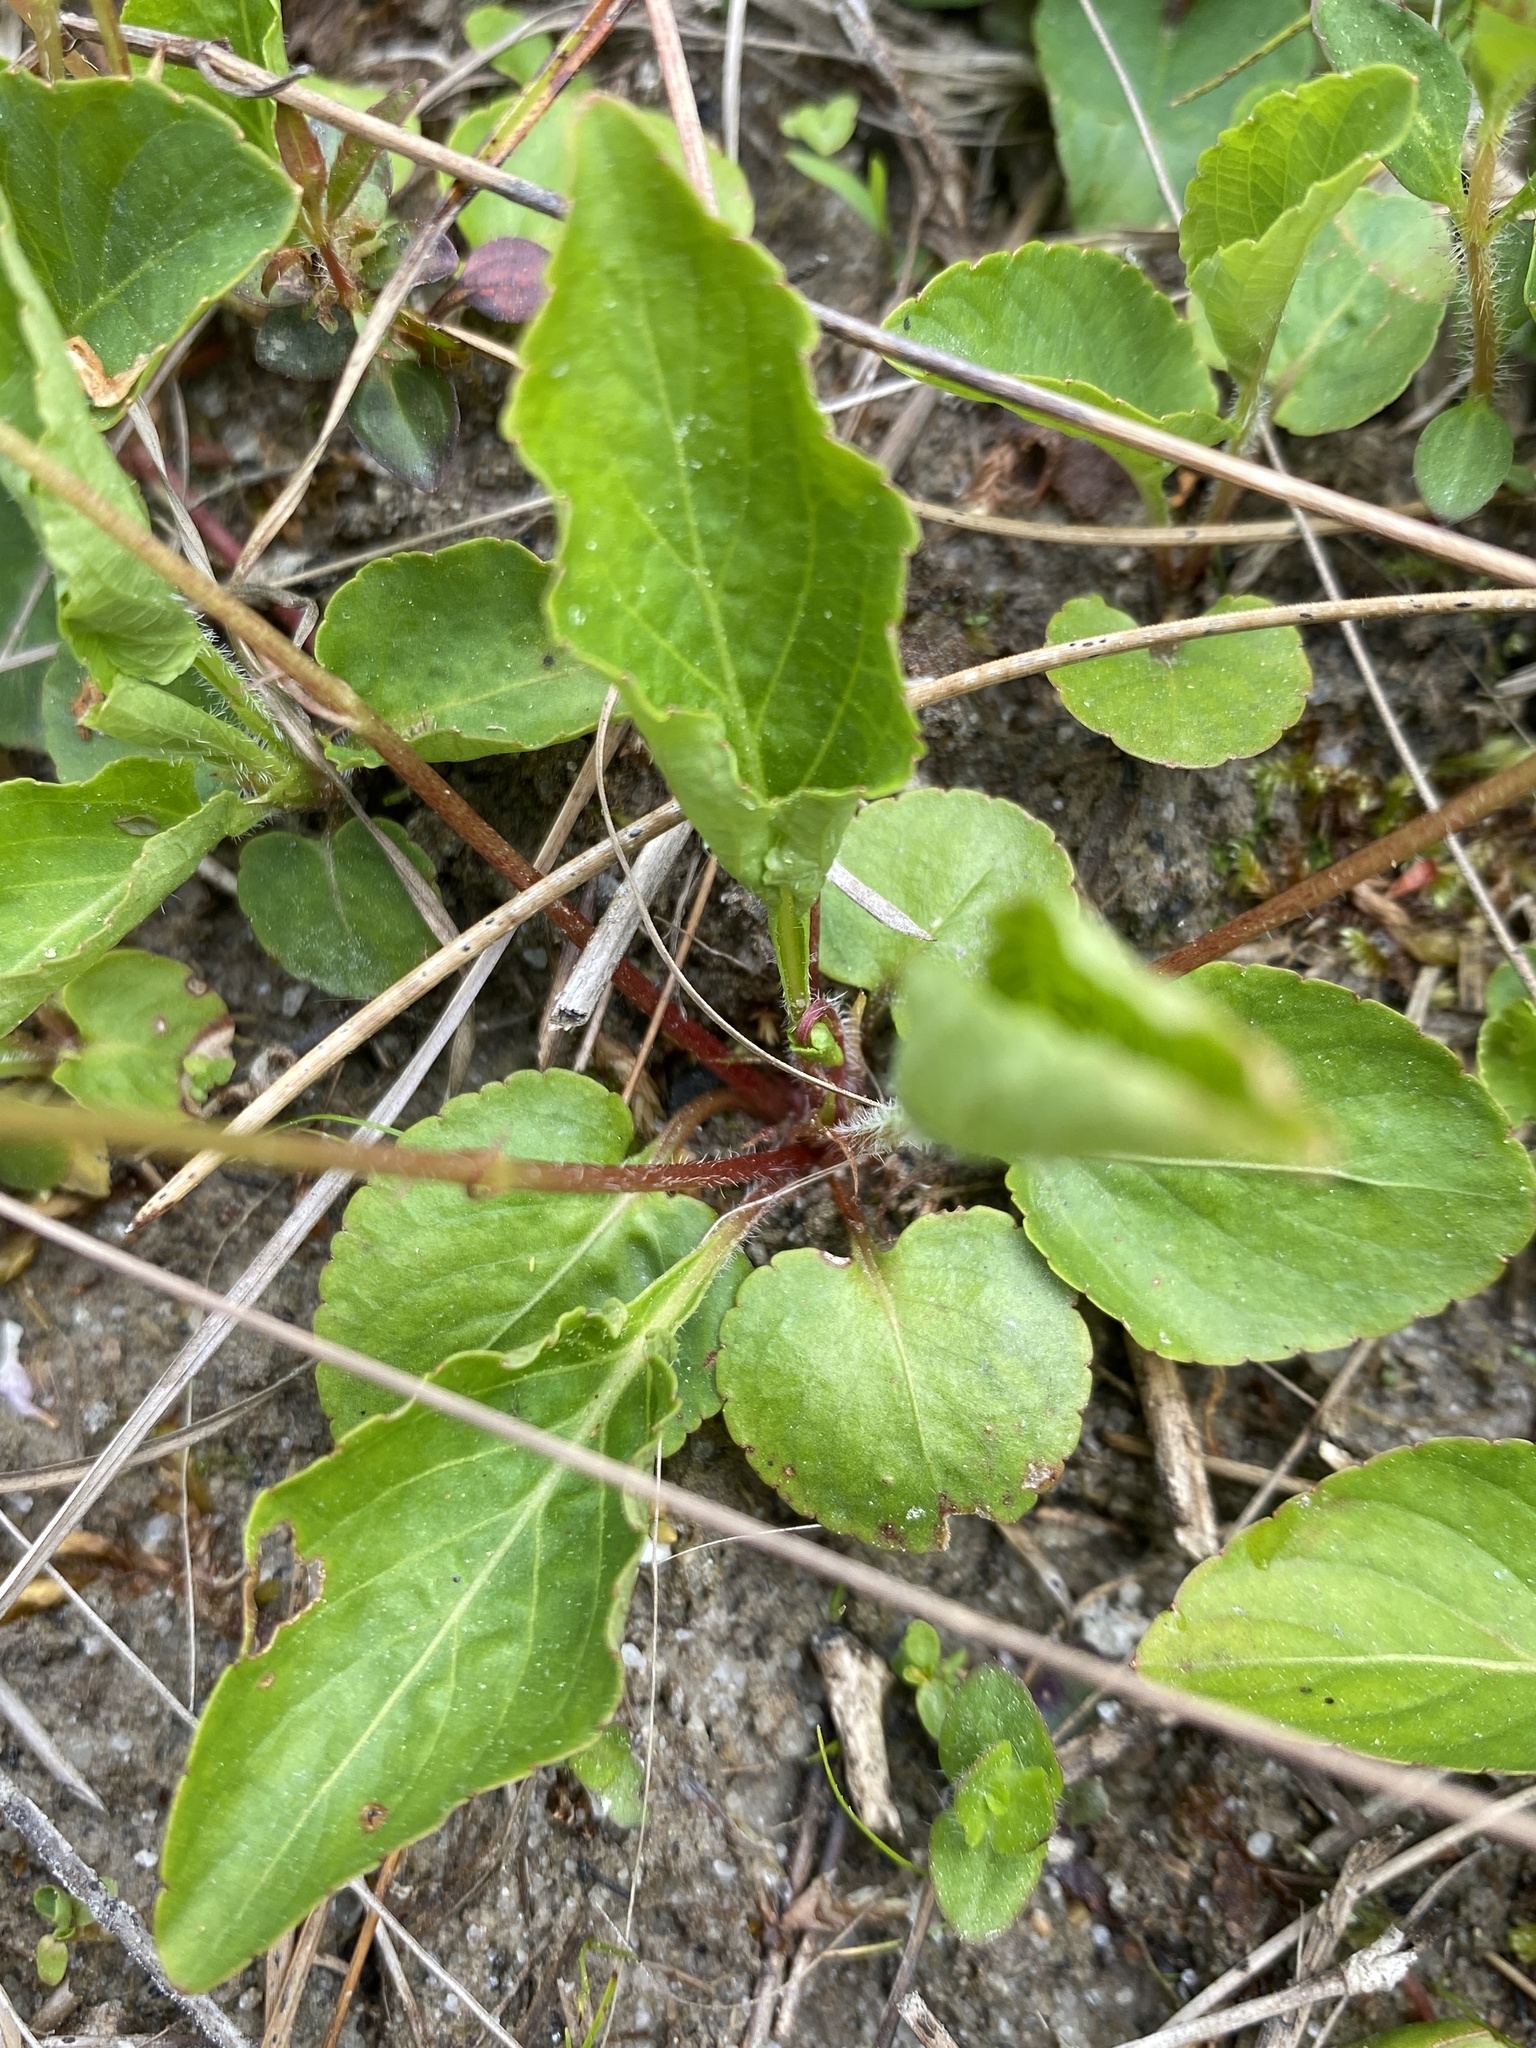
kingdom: Plantae
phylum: Tracheophyta
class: Magnoliopsida
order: Malpighiales
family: Violaceae
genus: Viola
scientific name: Viola primulifolia
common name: Primrose-leaf violet
